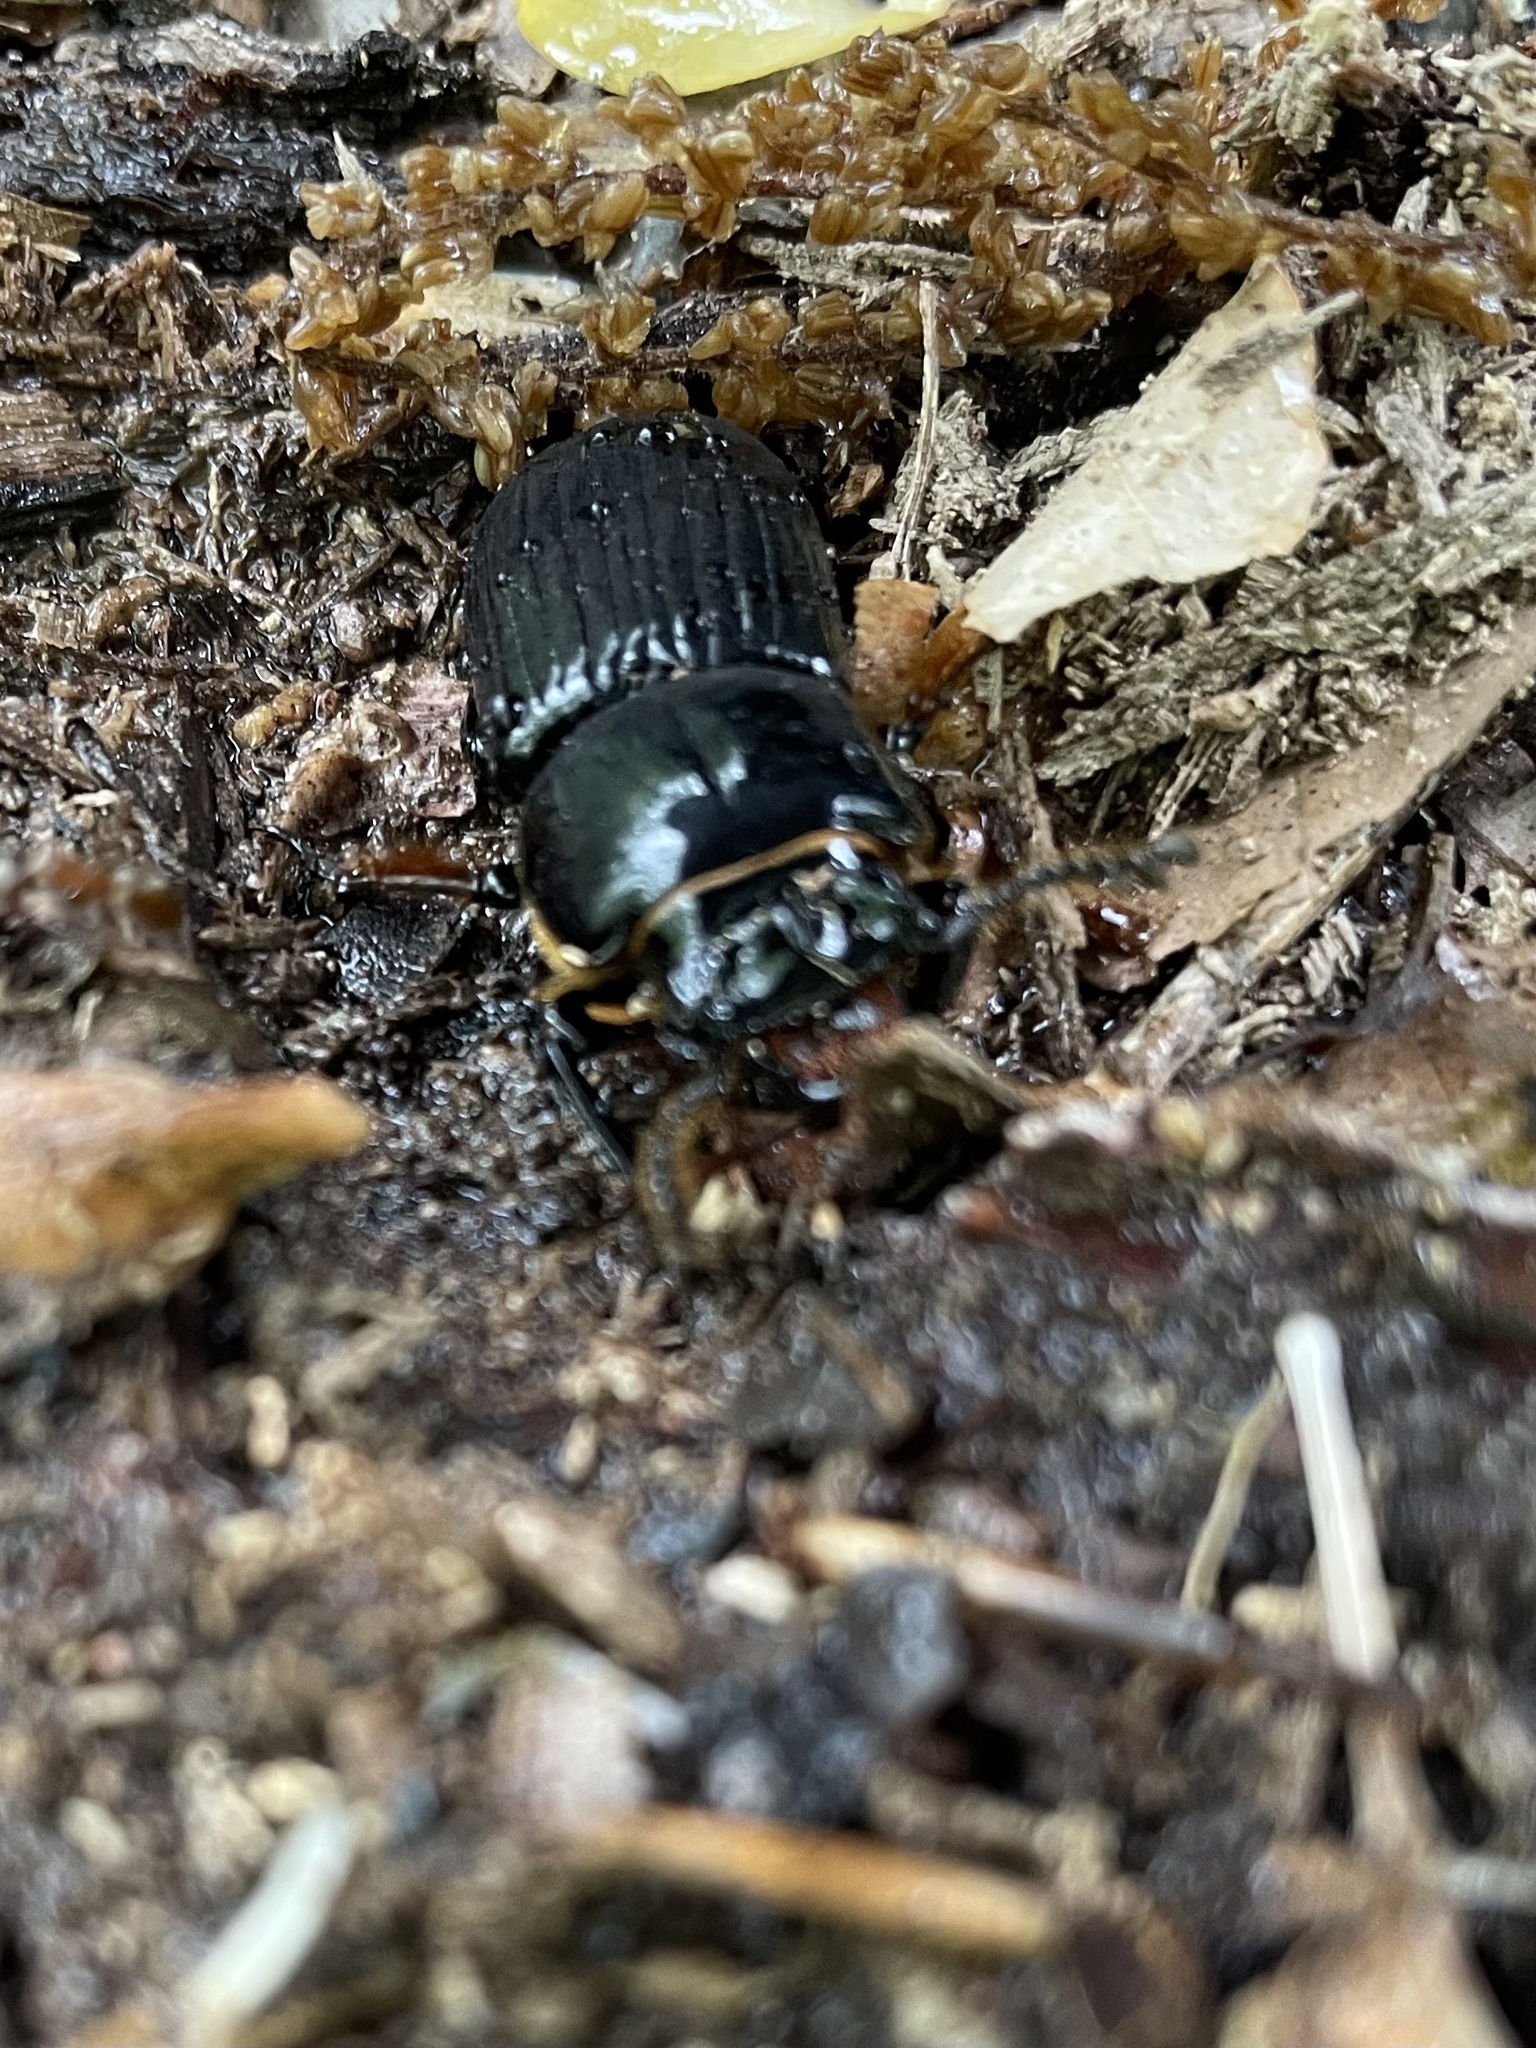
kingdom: Animalia
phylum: Arthropoda
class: Insecta
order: Coleoptera
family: Passalidae
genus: Odontotaenius
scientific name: Odontotaenius disjunctus
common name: Patent leather beetle
